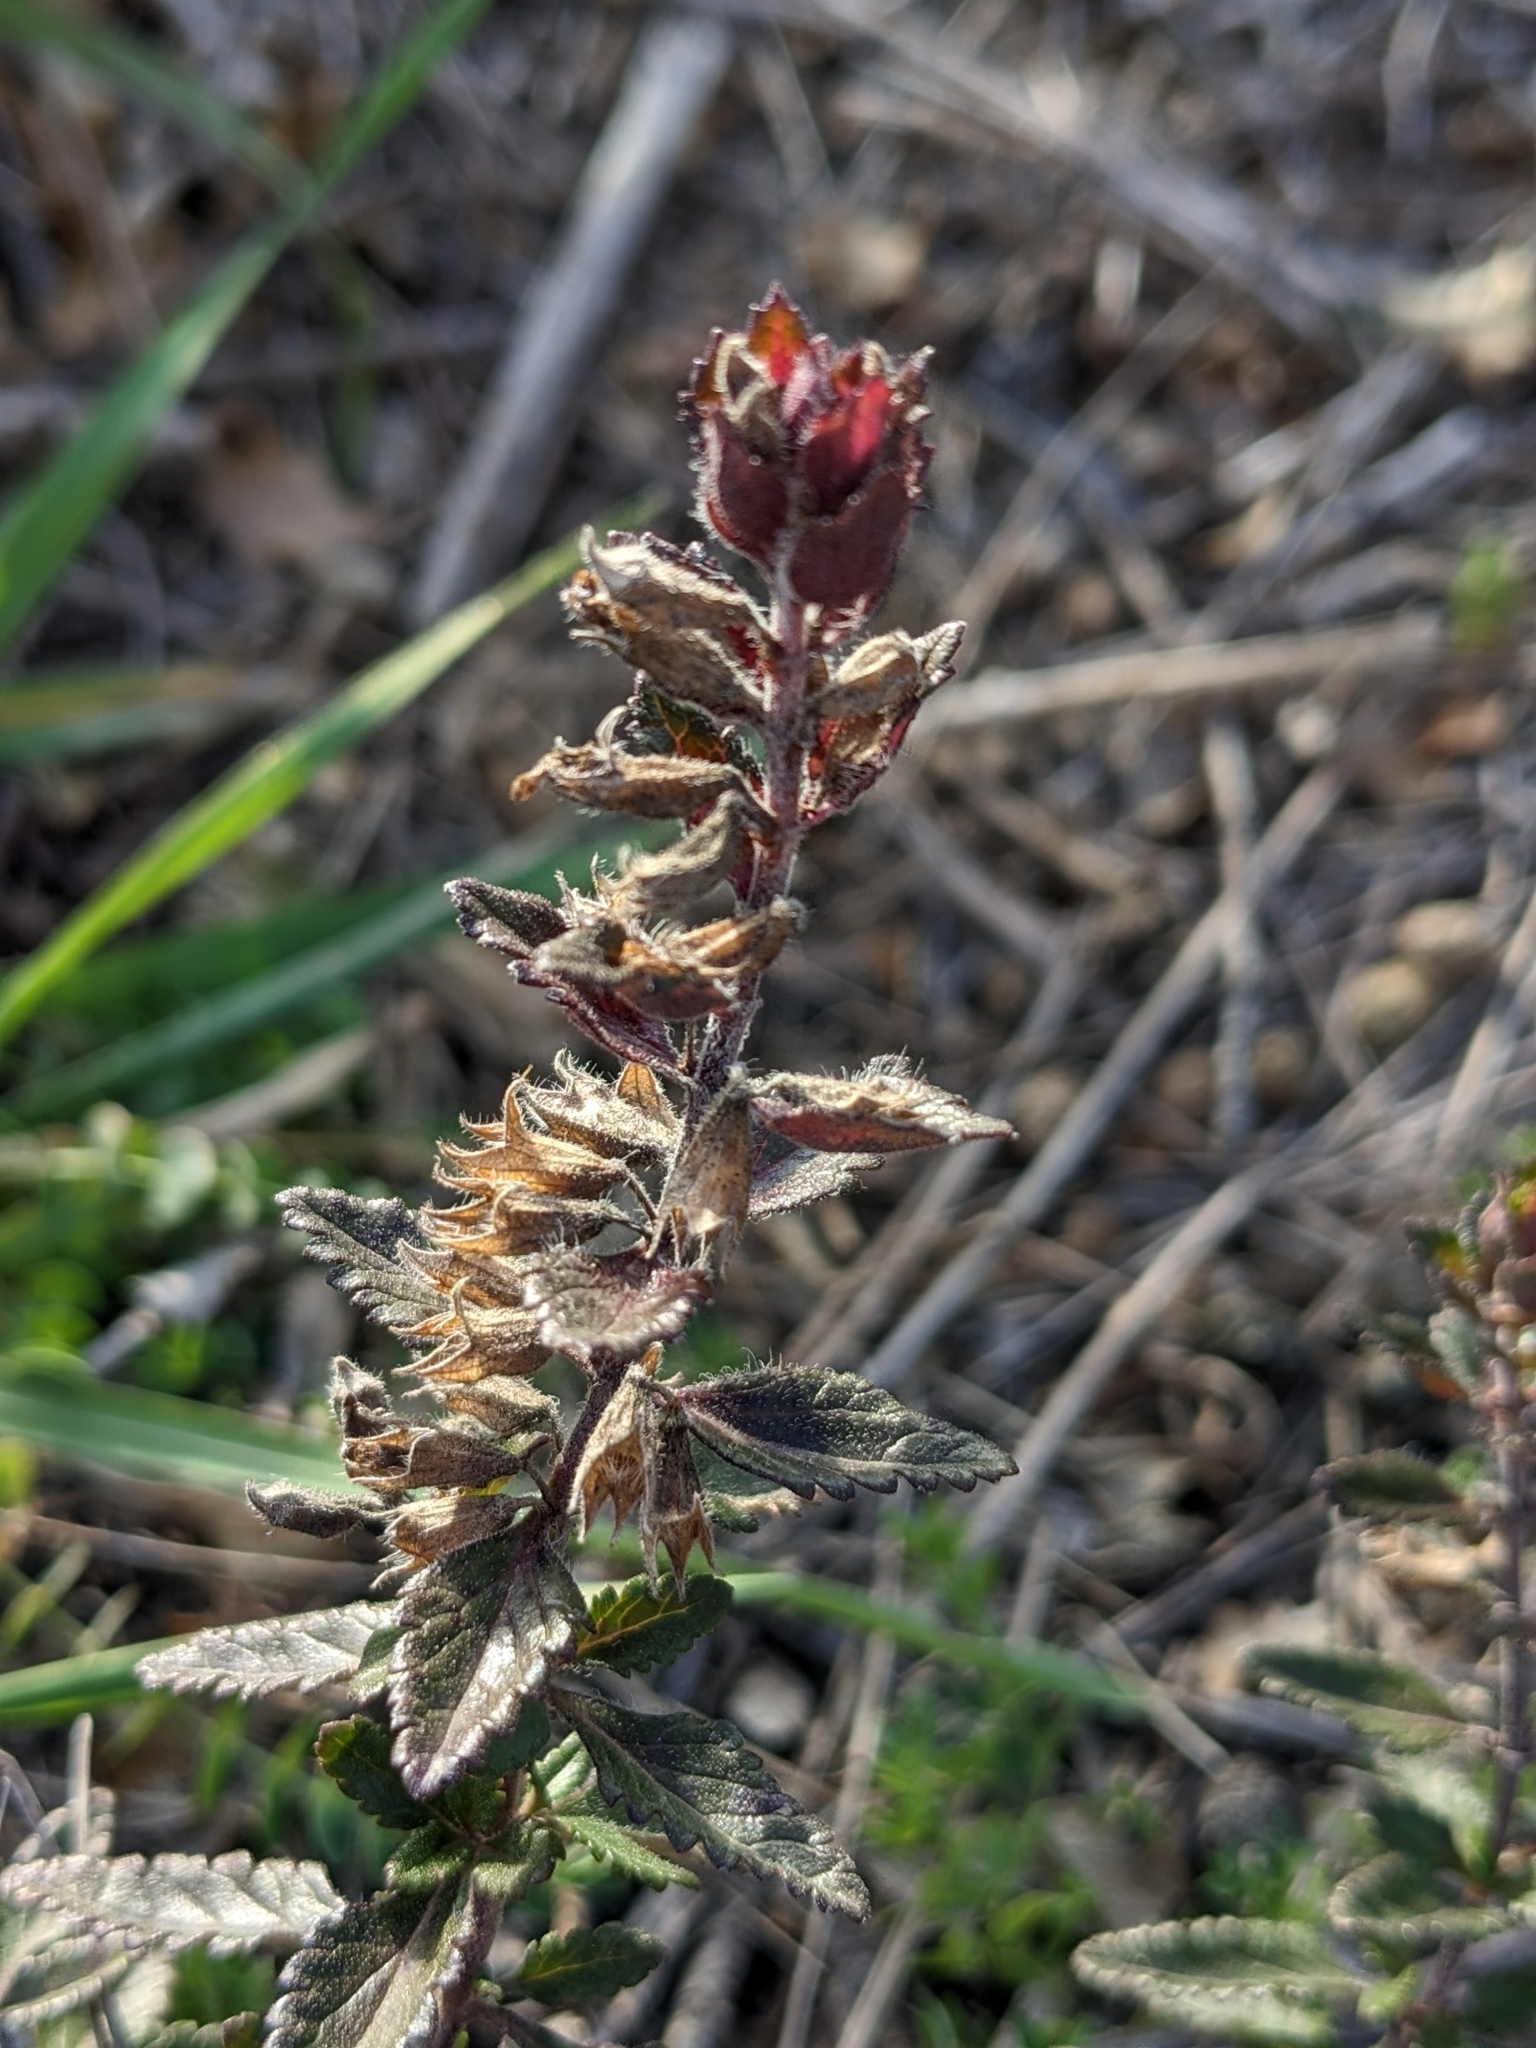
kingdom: Plantae
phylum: Tracheophyta
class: Magnoliopsida
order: Lamiales
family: Lamiaceae
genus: Teucrium
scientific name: Teucrium chamaedrys
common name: Wall germander
